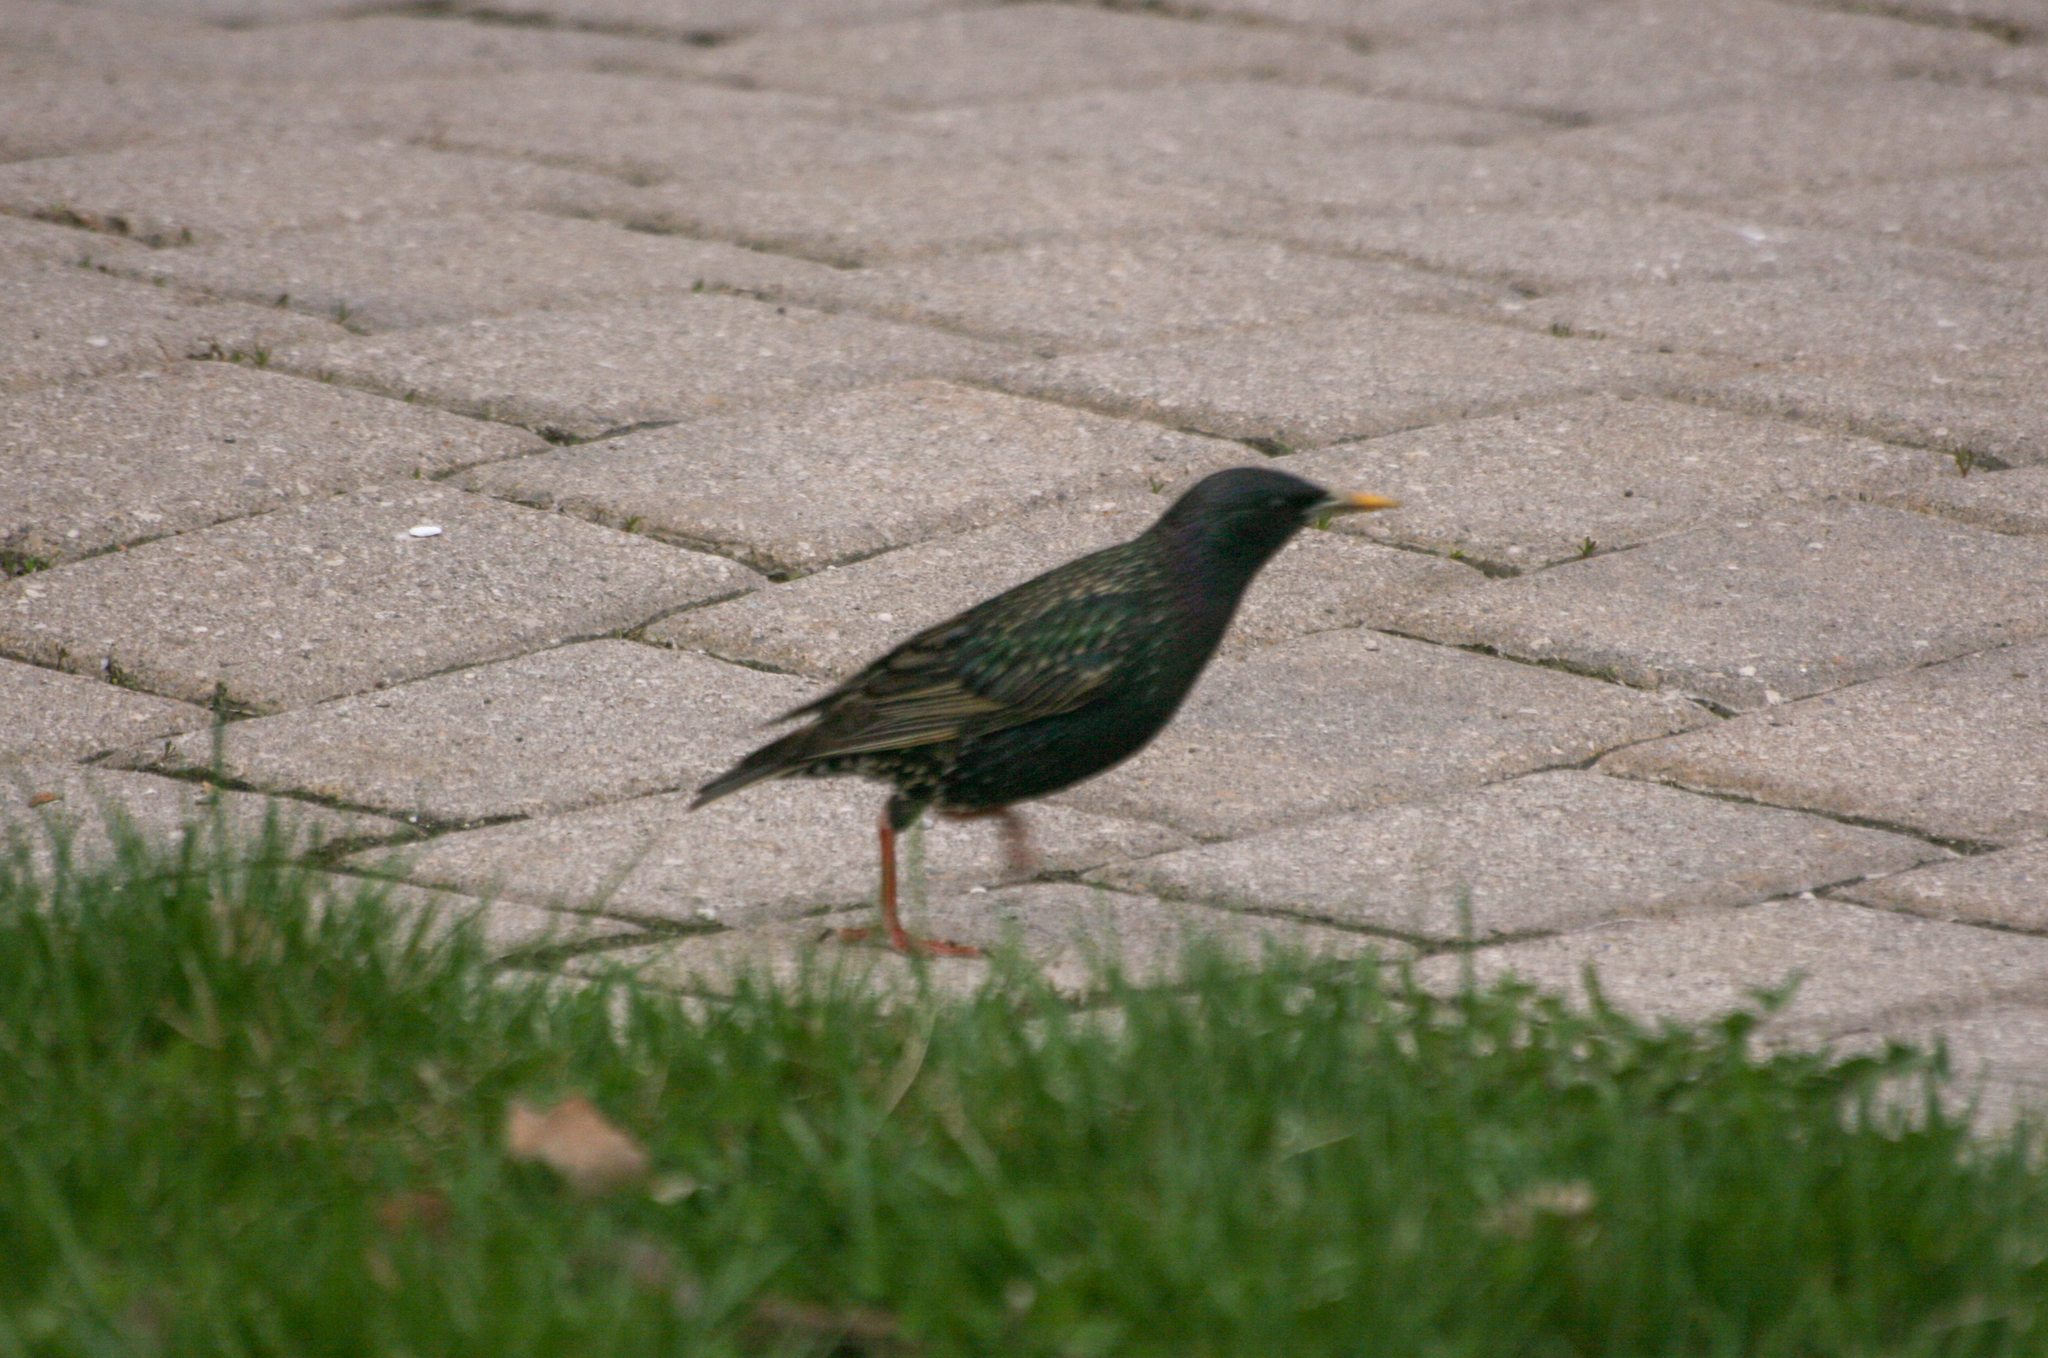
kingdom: Animalia
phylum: Chordata
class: Aves
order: Passeriformes
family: Sturnidae
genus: Sturnus
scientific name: Sturnus vulgaris
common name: Common starling
